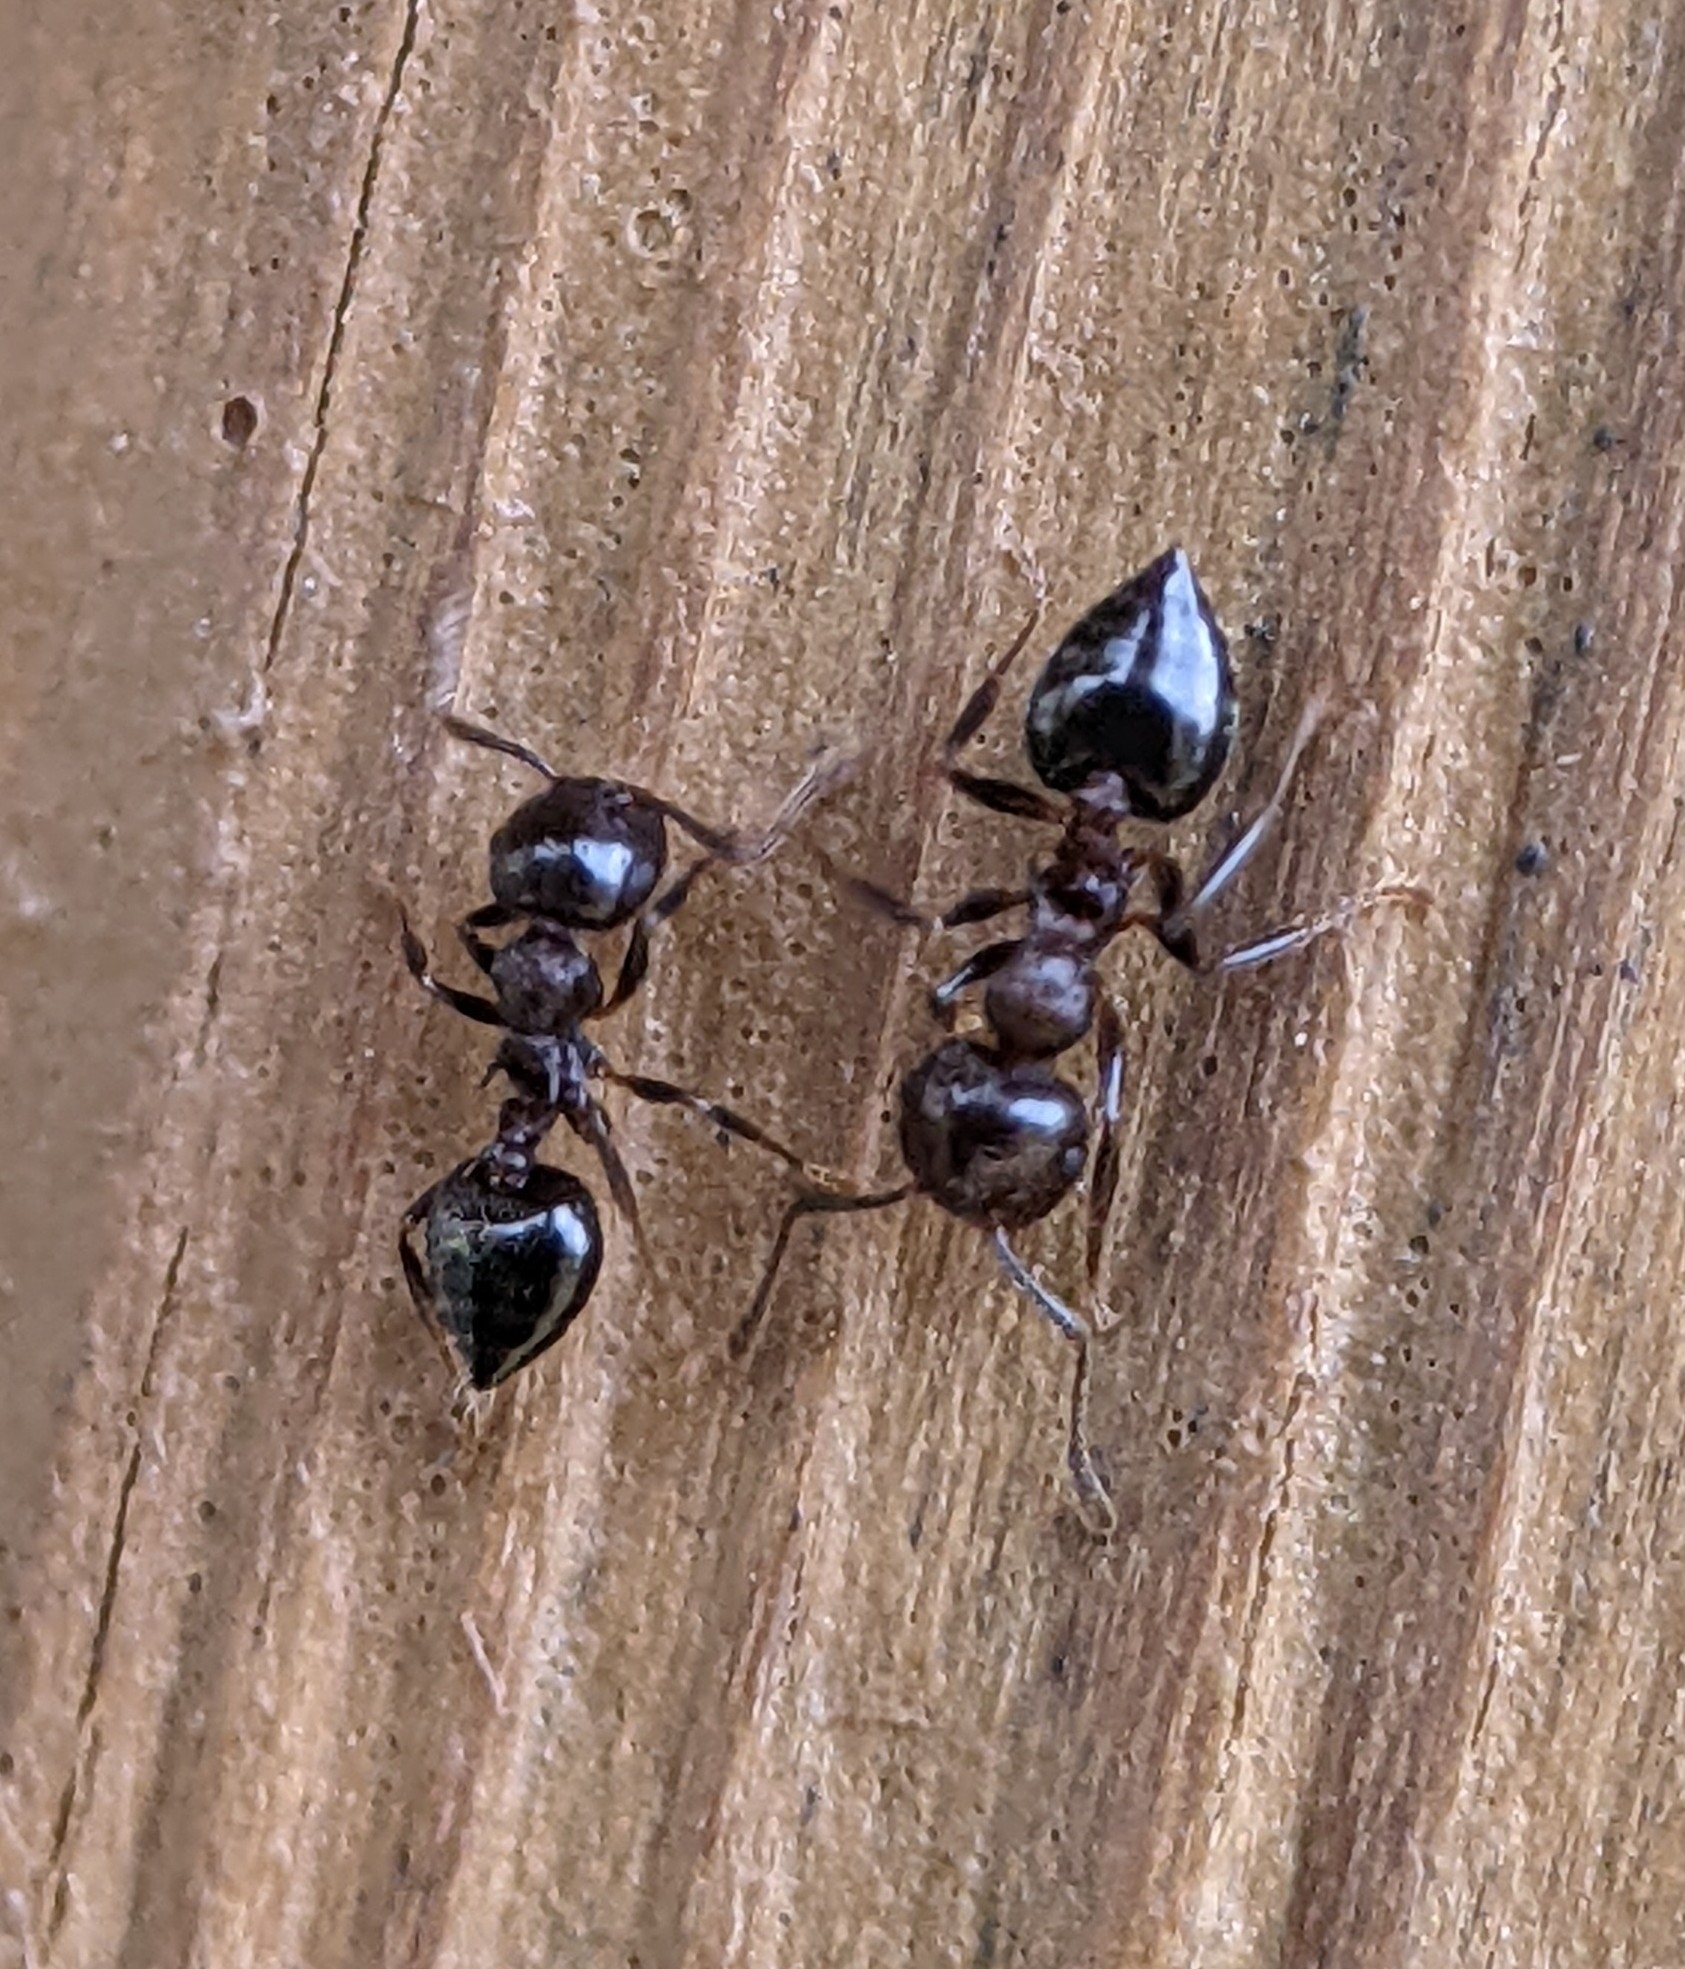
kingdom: Animalia
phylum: Arthropoda
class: Insecta
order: Hymenoptera
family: Formicidae
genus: Crematogaster
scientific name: Crematogaster cerasi
